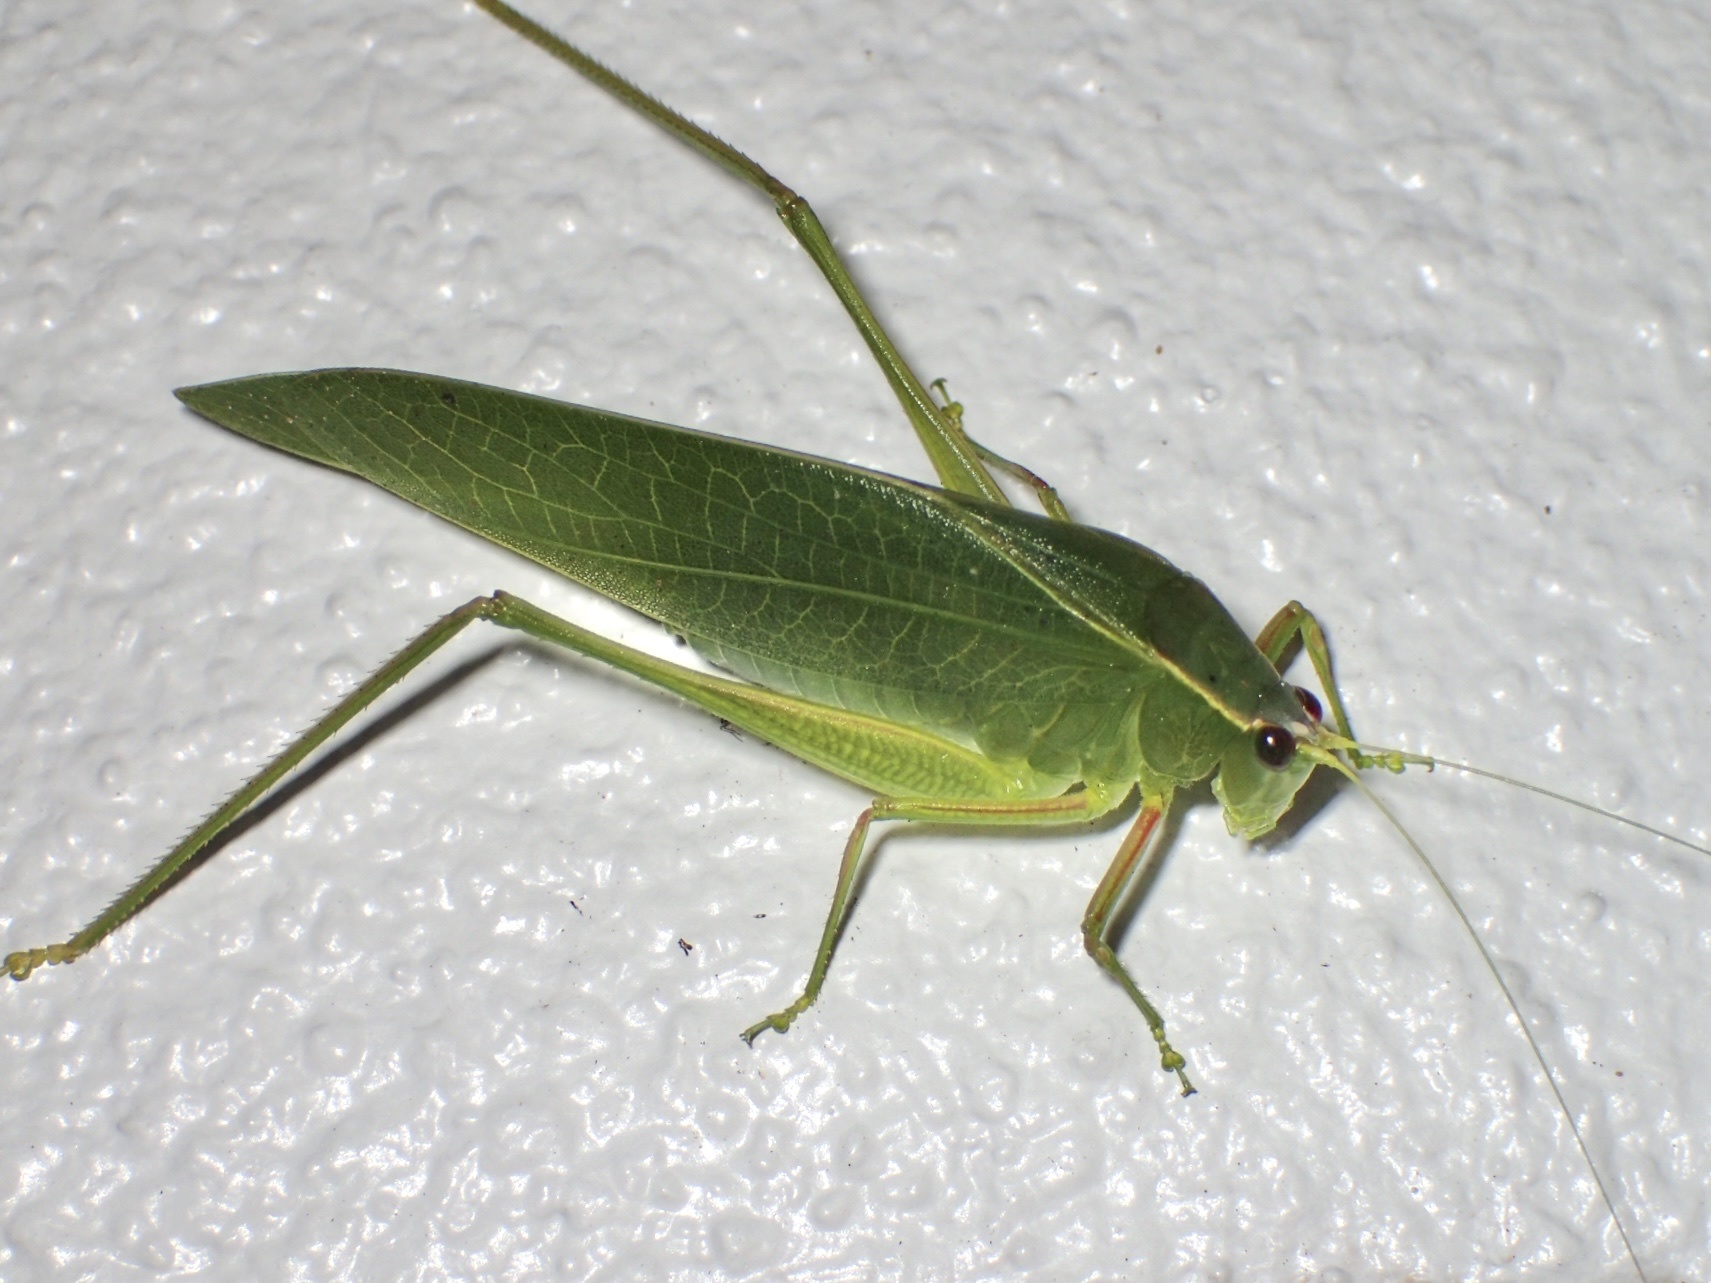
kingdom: Animalia
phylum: Arthropoda
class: Insecta
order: Orthoptera
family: Tettigoniidae
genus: Turpilia
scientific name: Turpilia rostrata
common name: Narrow-beaked katydid
